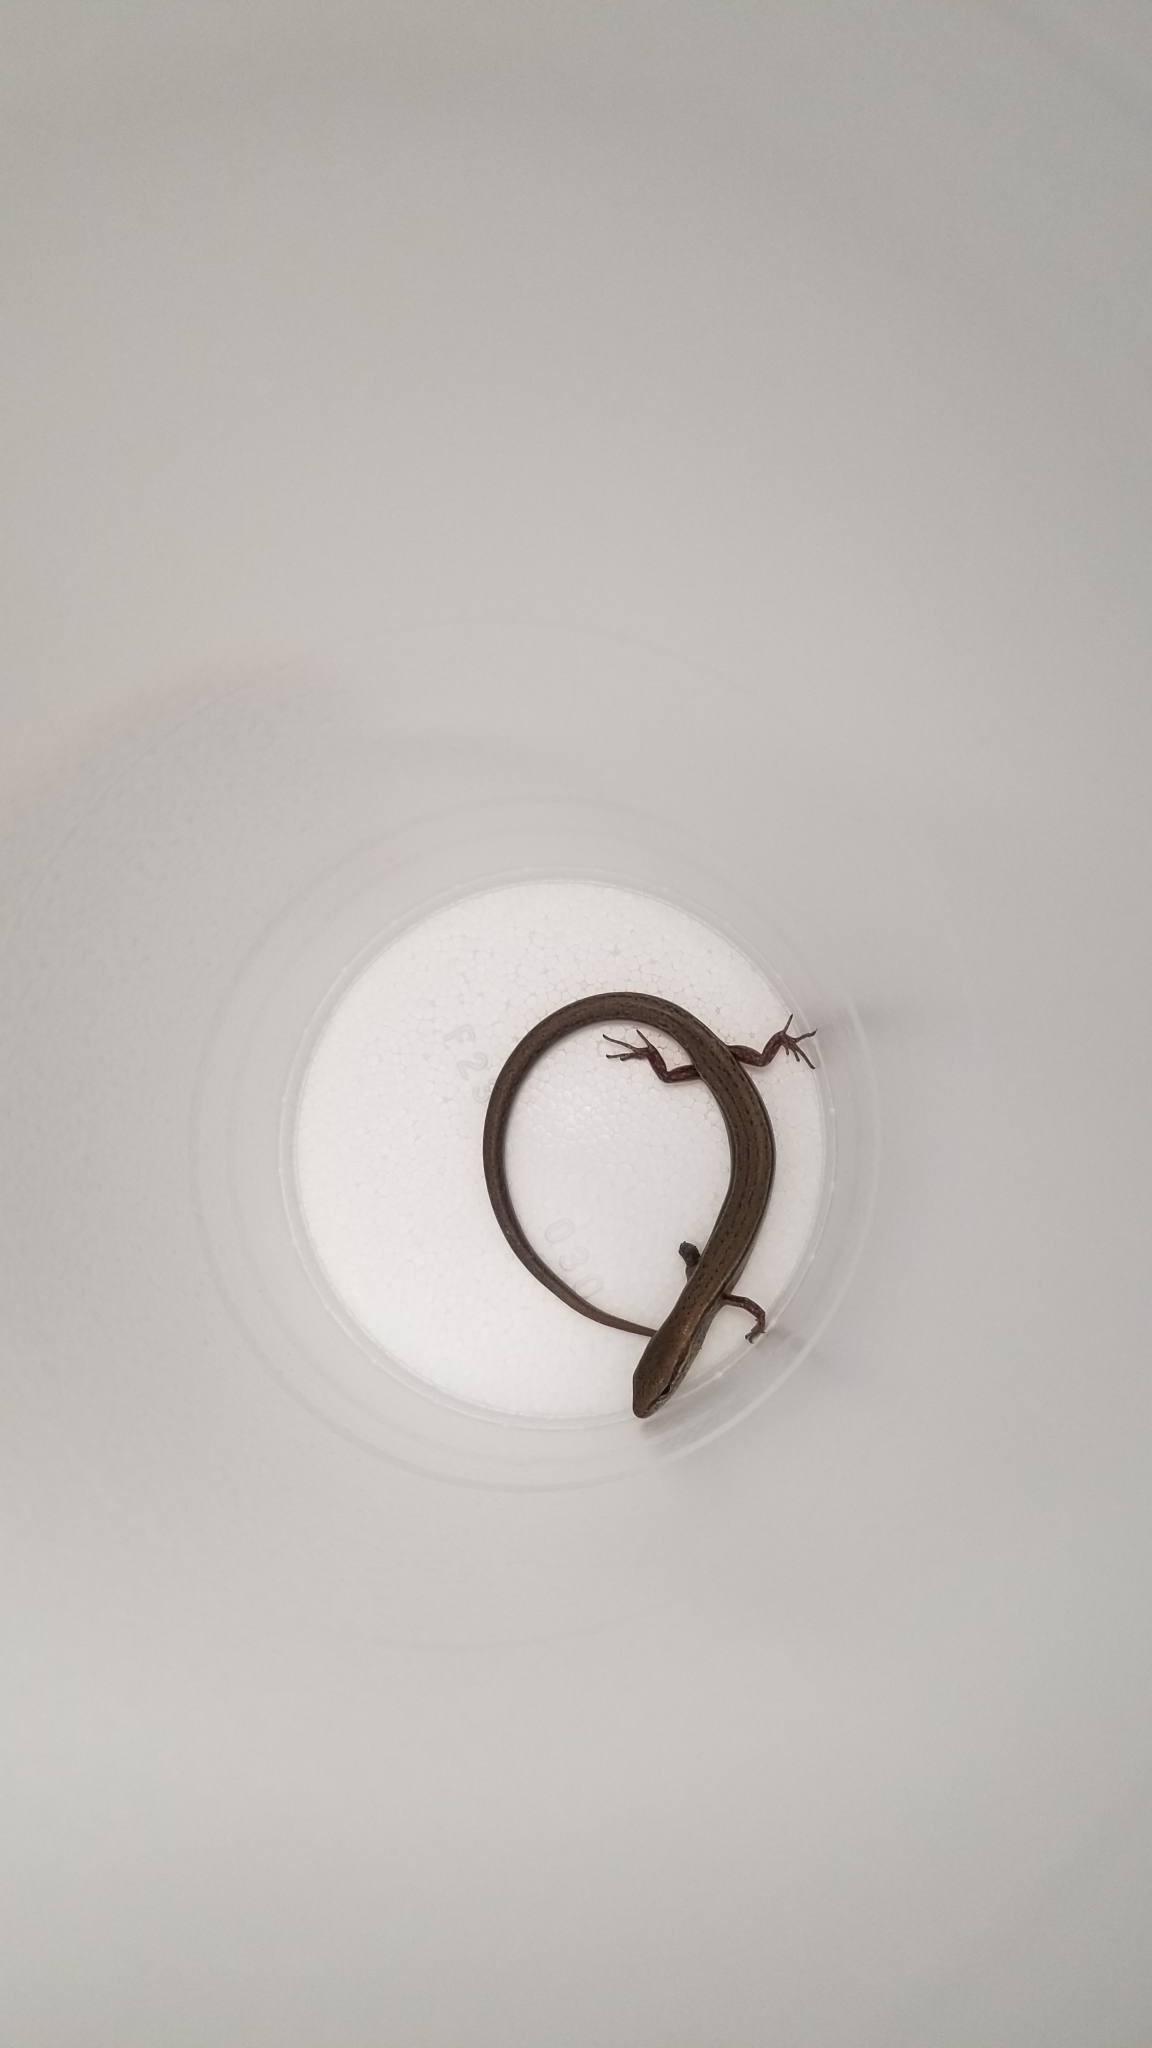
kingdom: Animalia
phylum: Chordata
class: Squamata
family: Scincidae
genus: Scincella
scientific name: Scincella lateralis
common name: Ground skink
